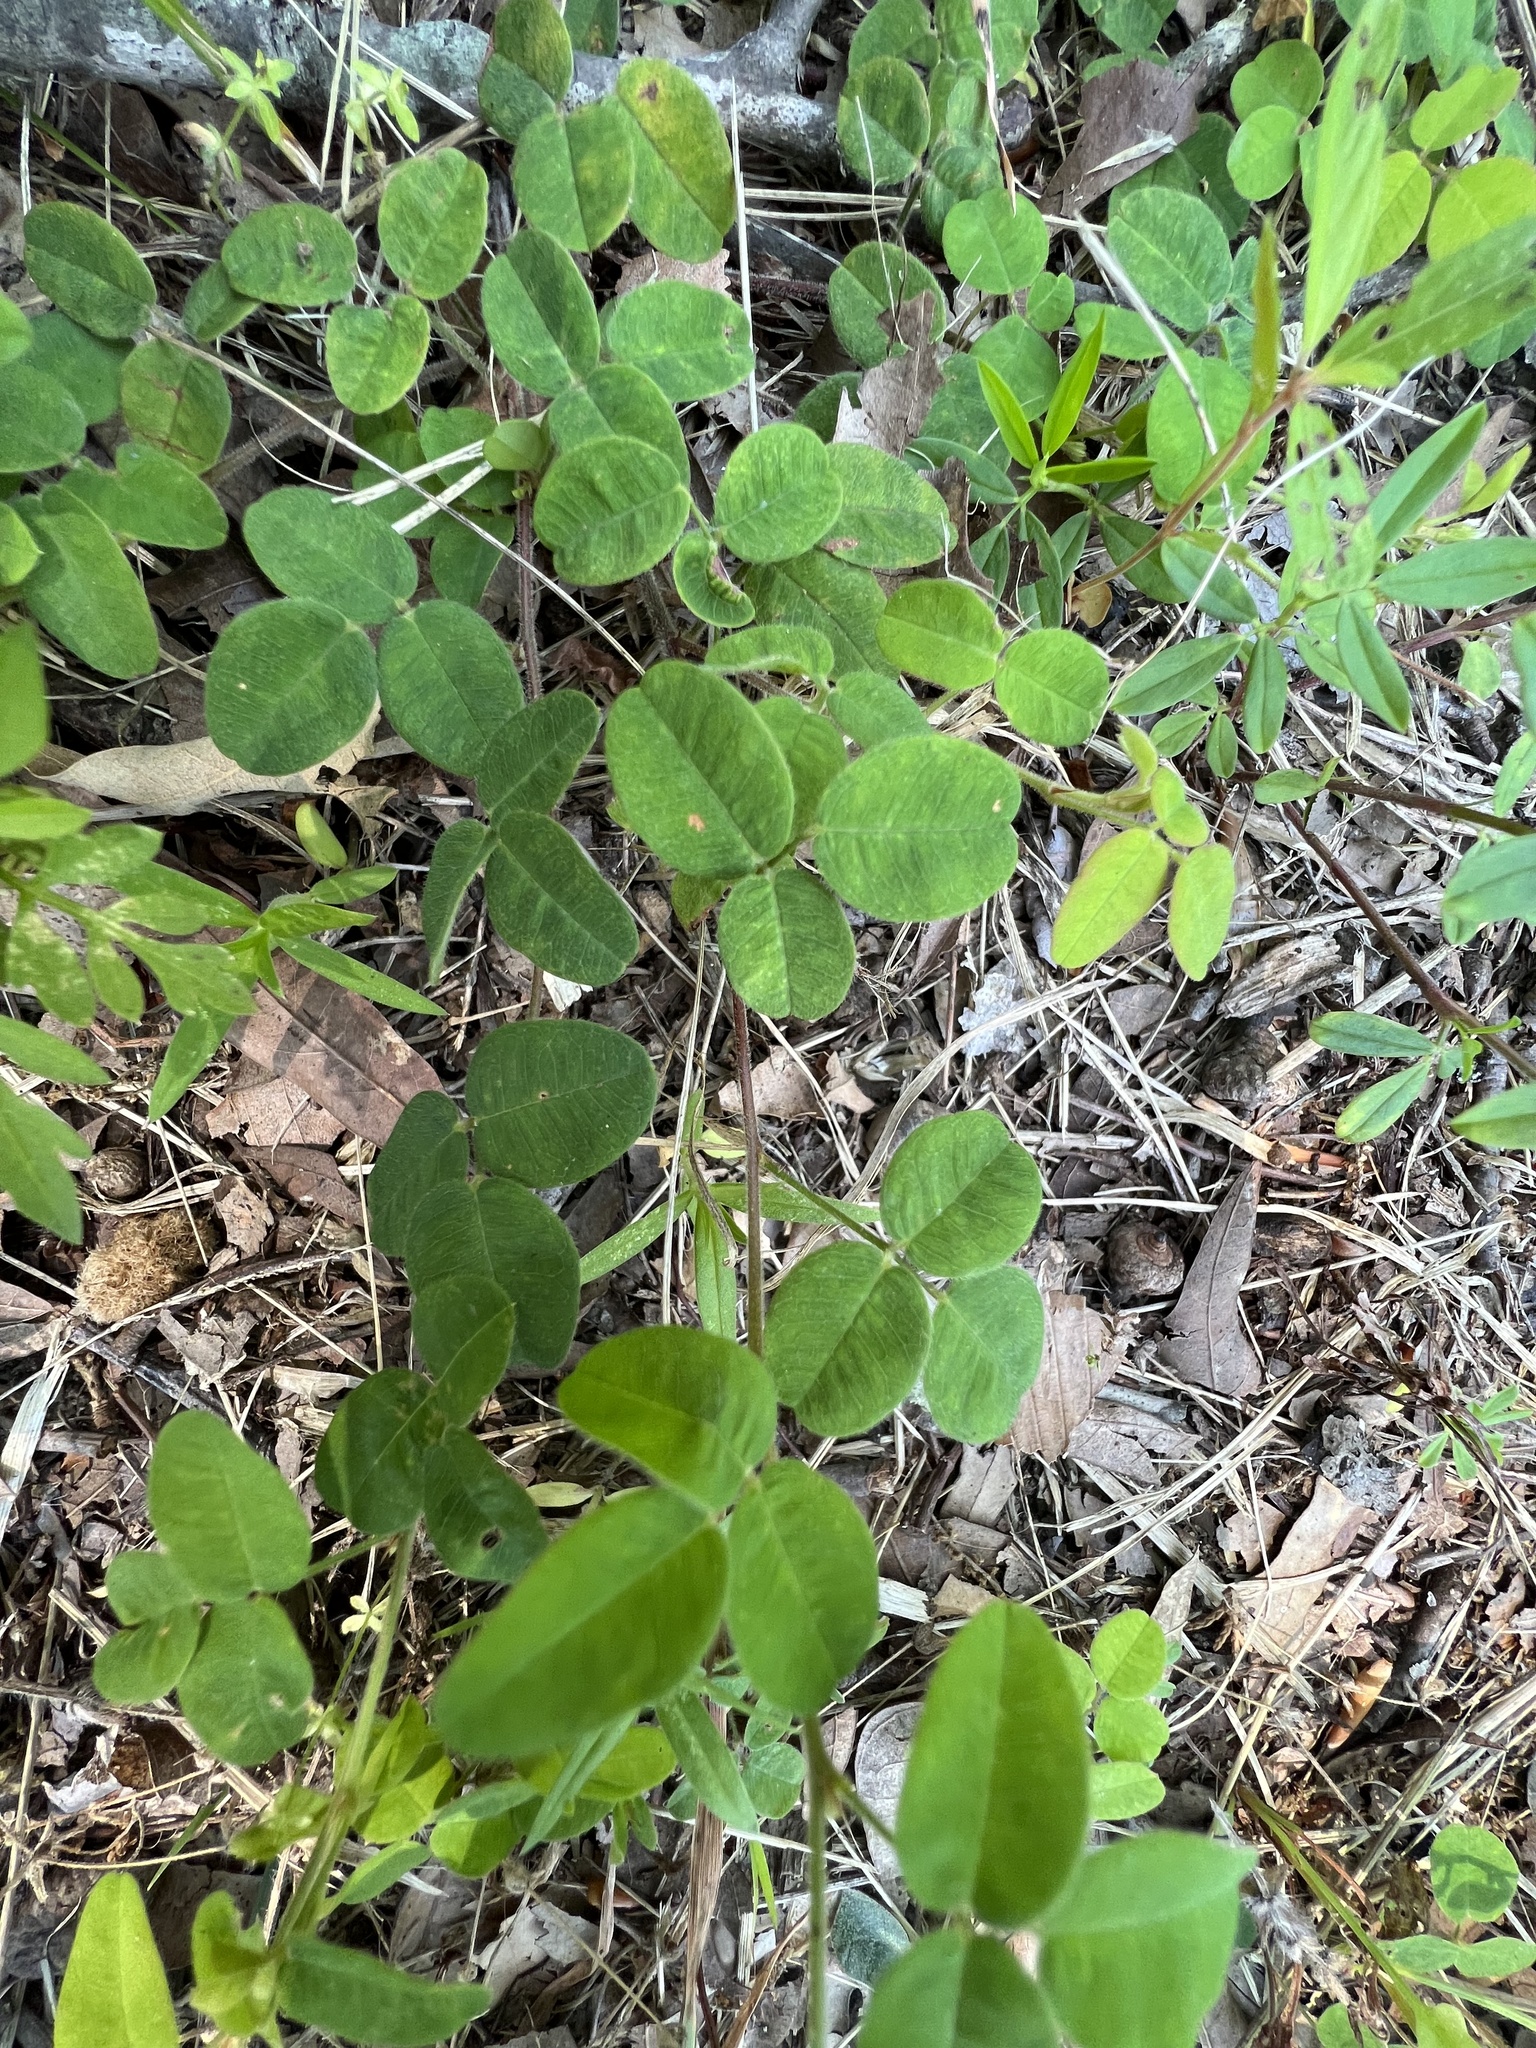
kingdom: Plantae
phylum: Tracheophyta
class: Magnoliopsida
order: Fabales
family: Fabaceae
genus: Lespedeza
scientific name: Lespedeza procumbens
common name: Downy trailing bush-clover
